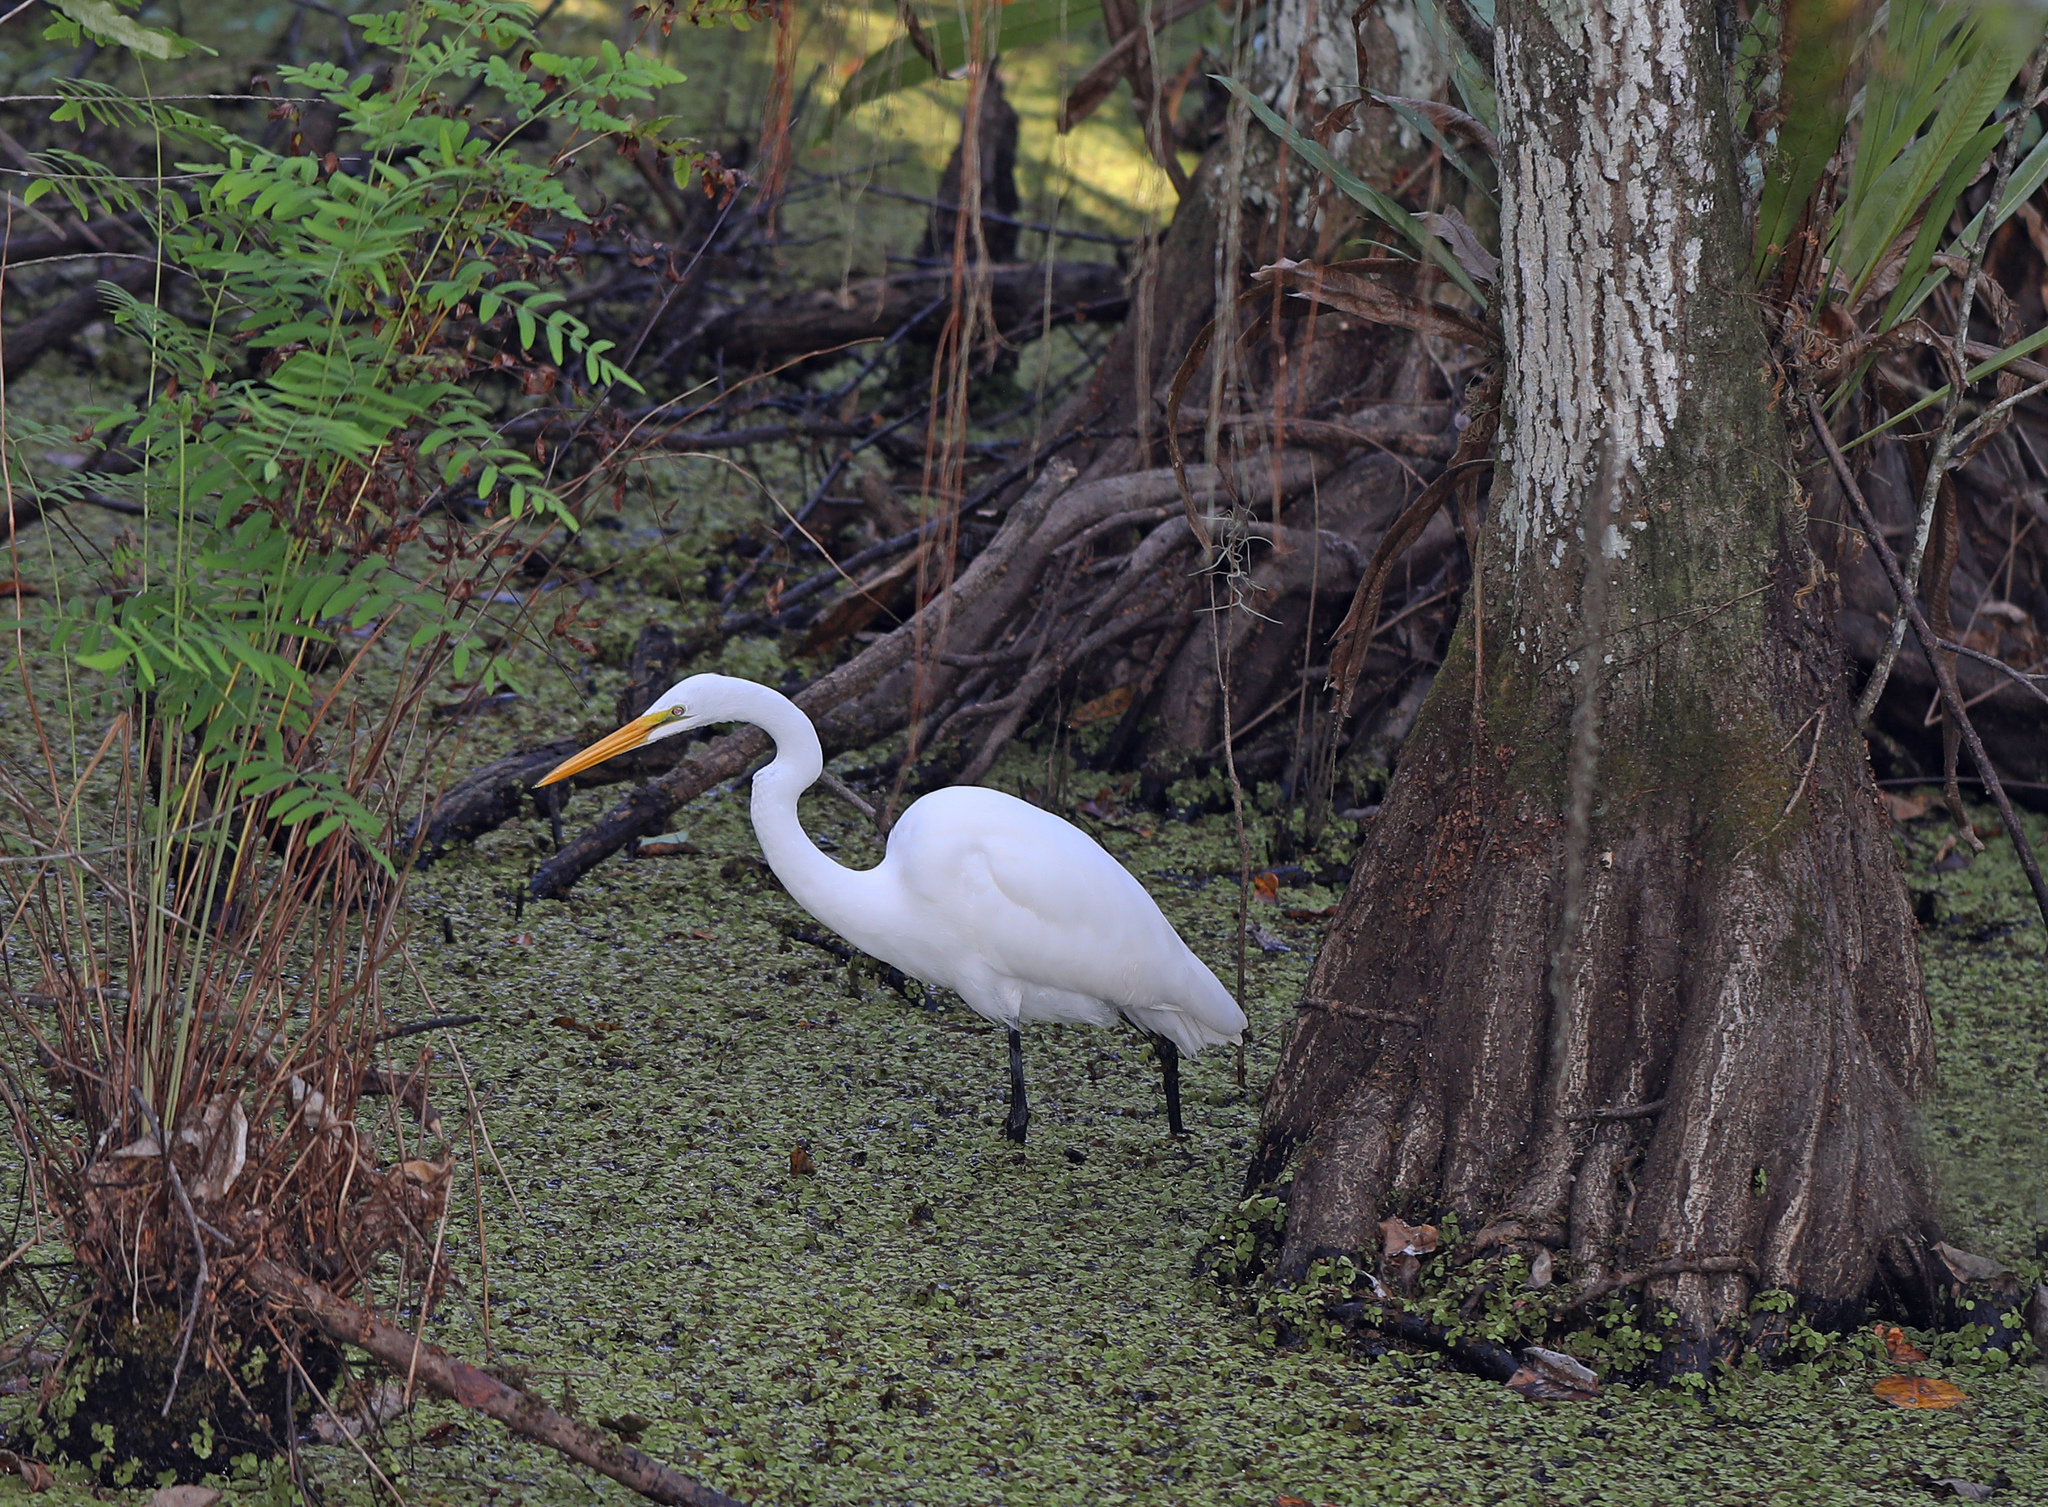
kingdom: Animalia
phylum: Chordata
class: Aves
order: Pelecaniformes
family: Ardeidae
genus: Ardea
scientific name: Ardea alba
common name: Great egret
